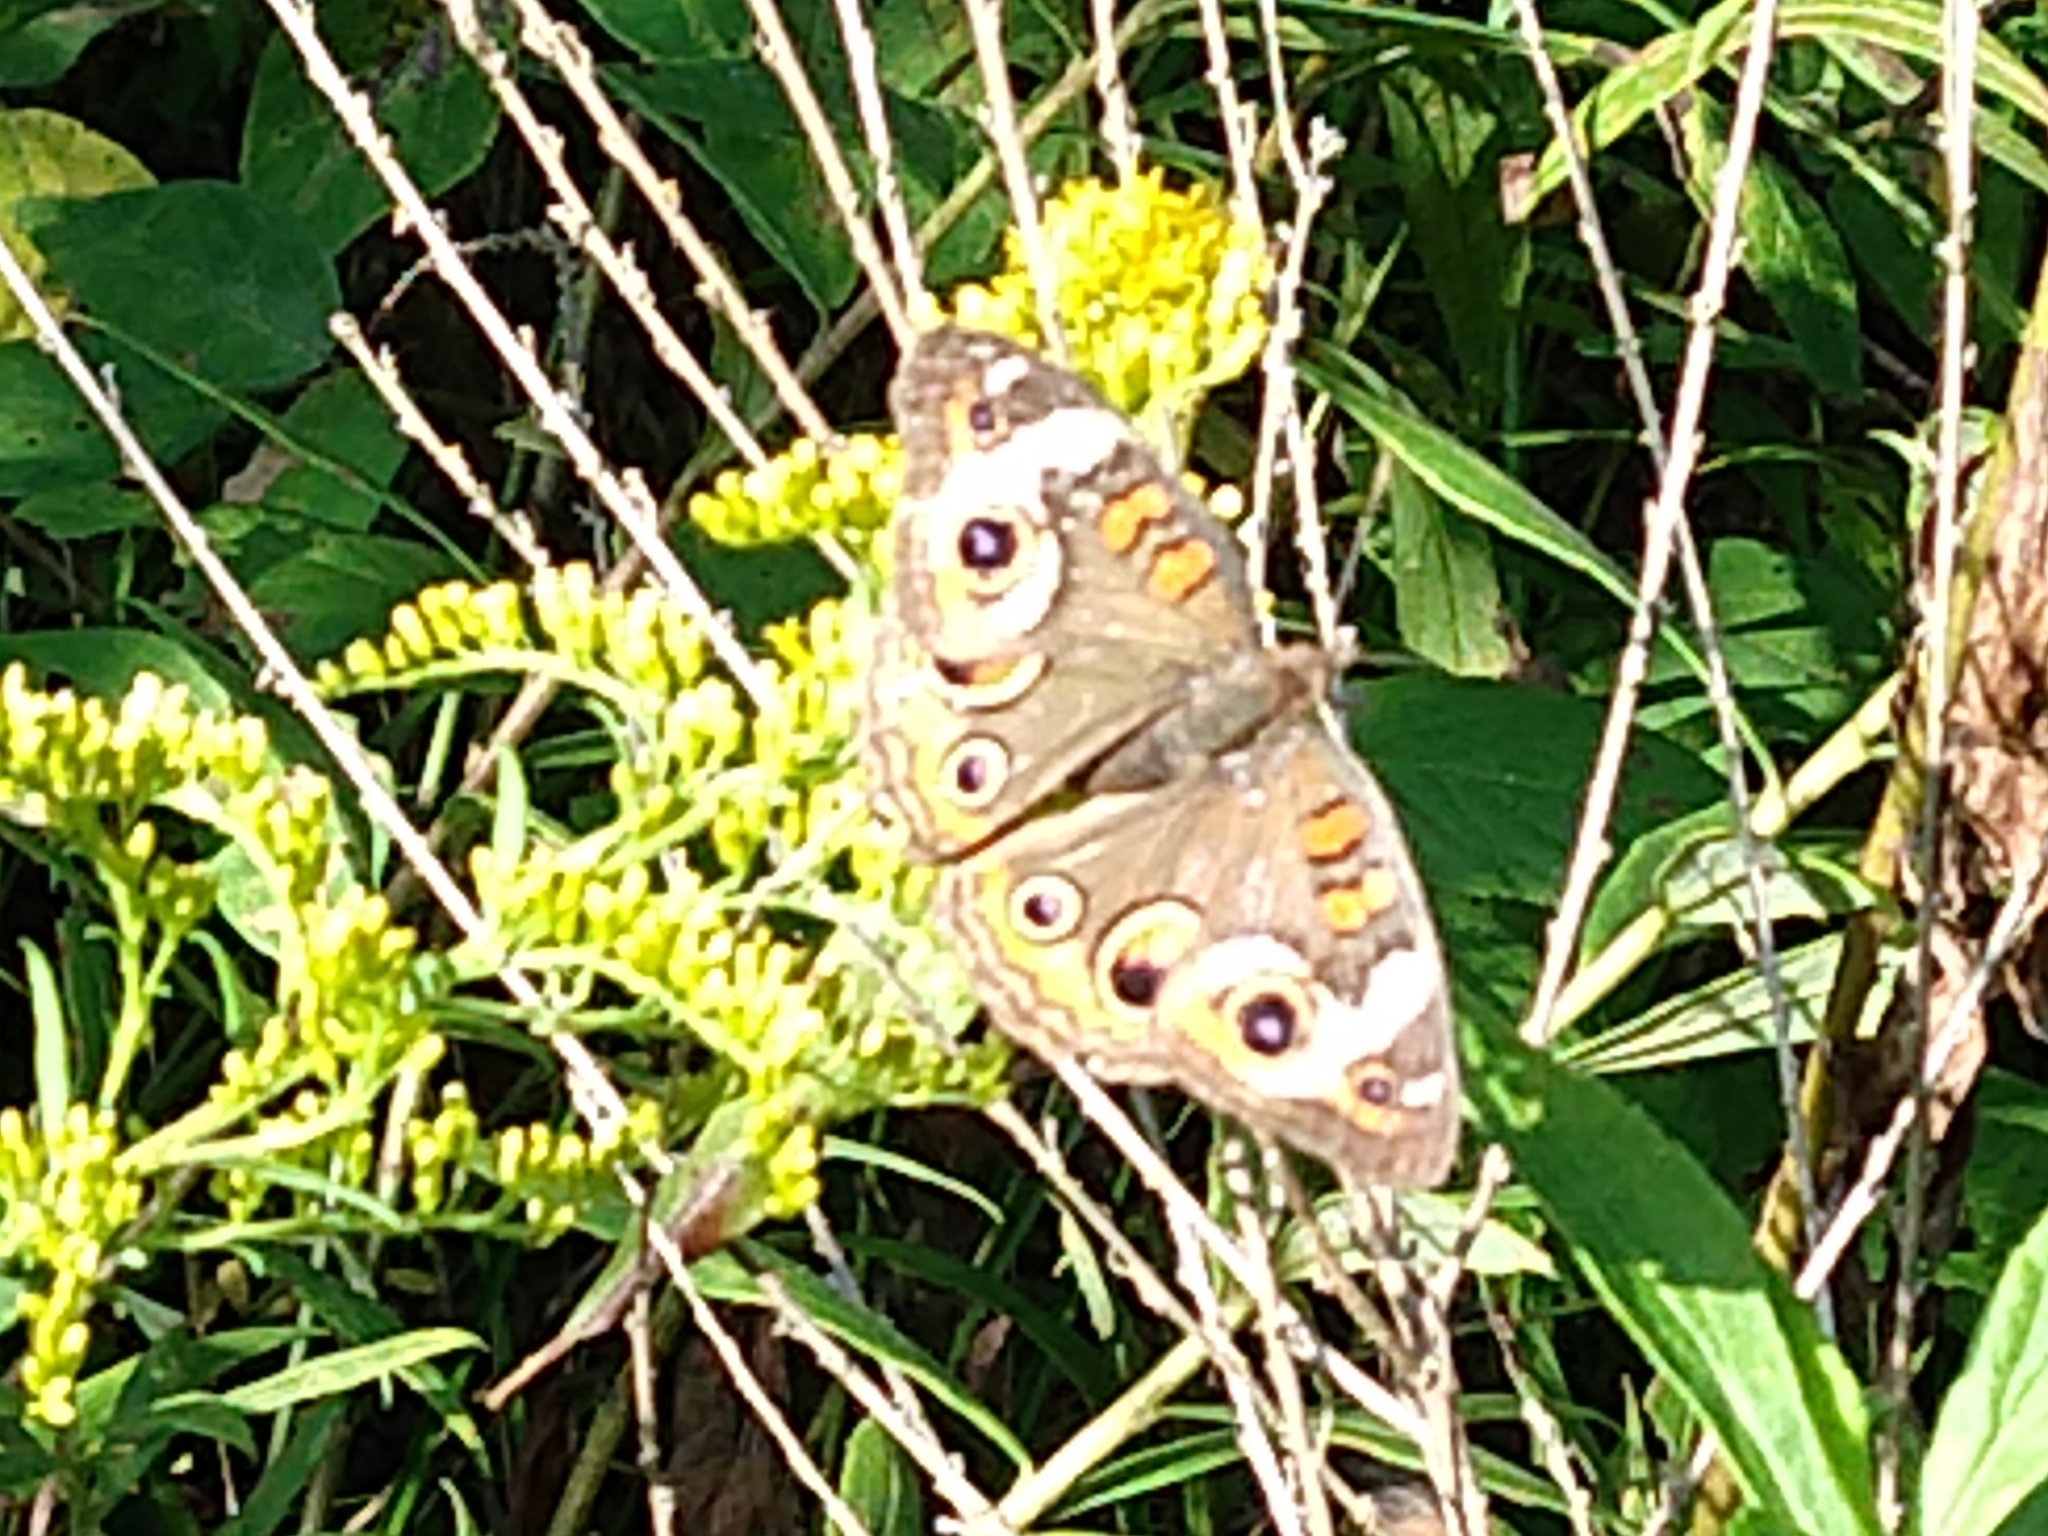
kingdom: Animalia
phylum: Arthropoda
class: Insecta
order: Lepidoptera
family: Nymphalidae
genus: Junonia
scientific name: Junonia coenia
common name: Common buckeye
